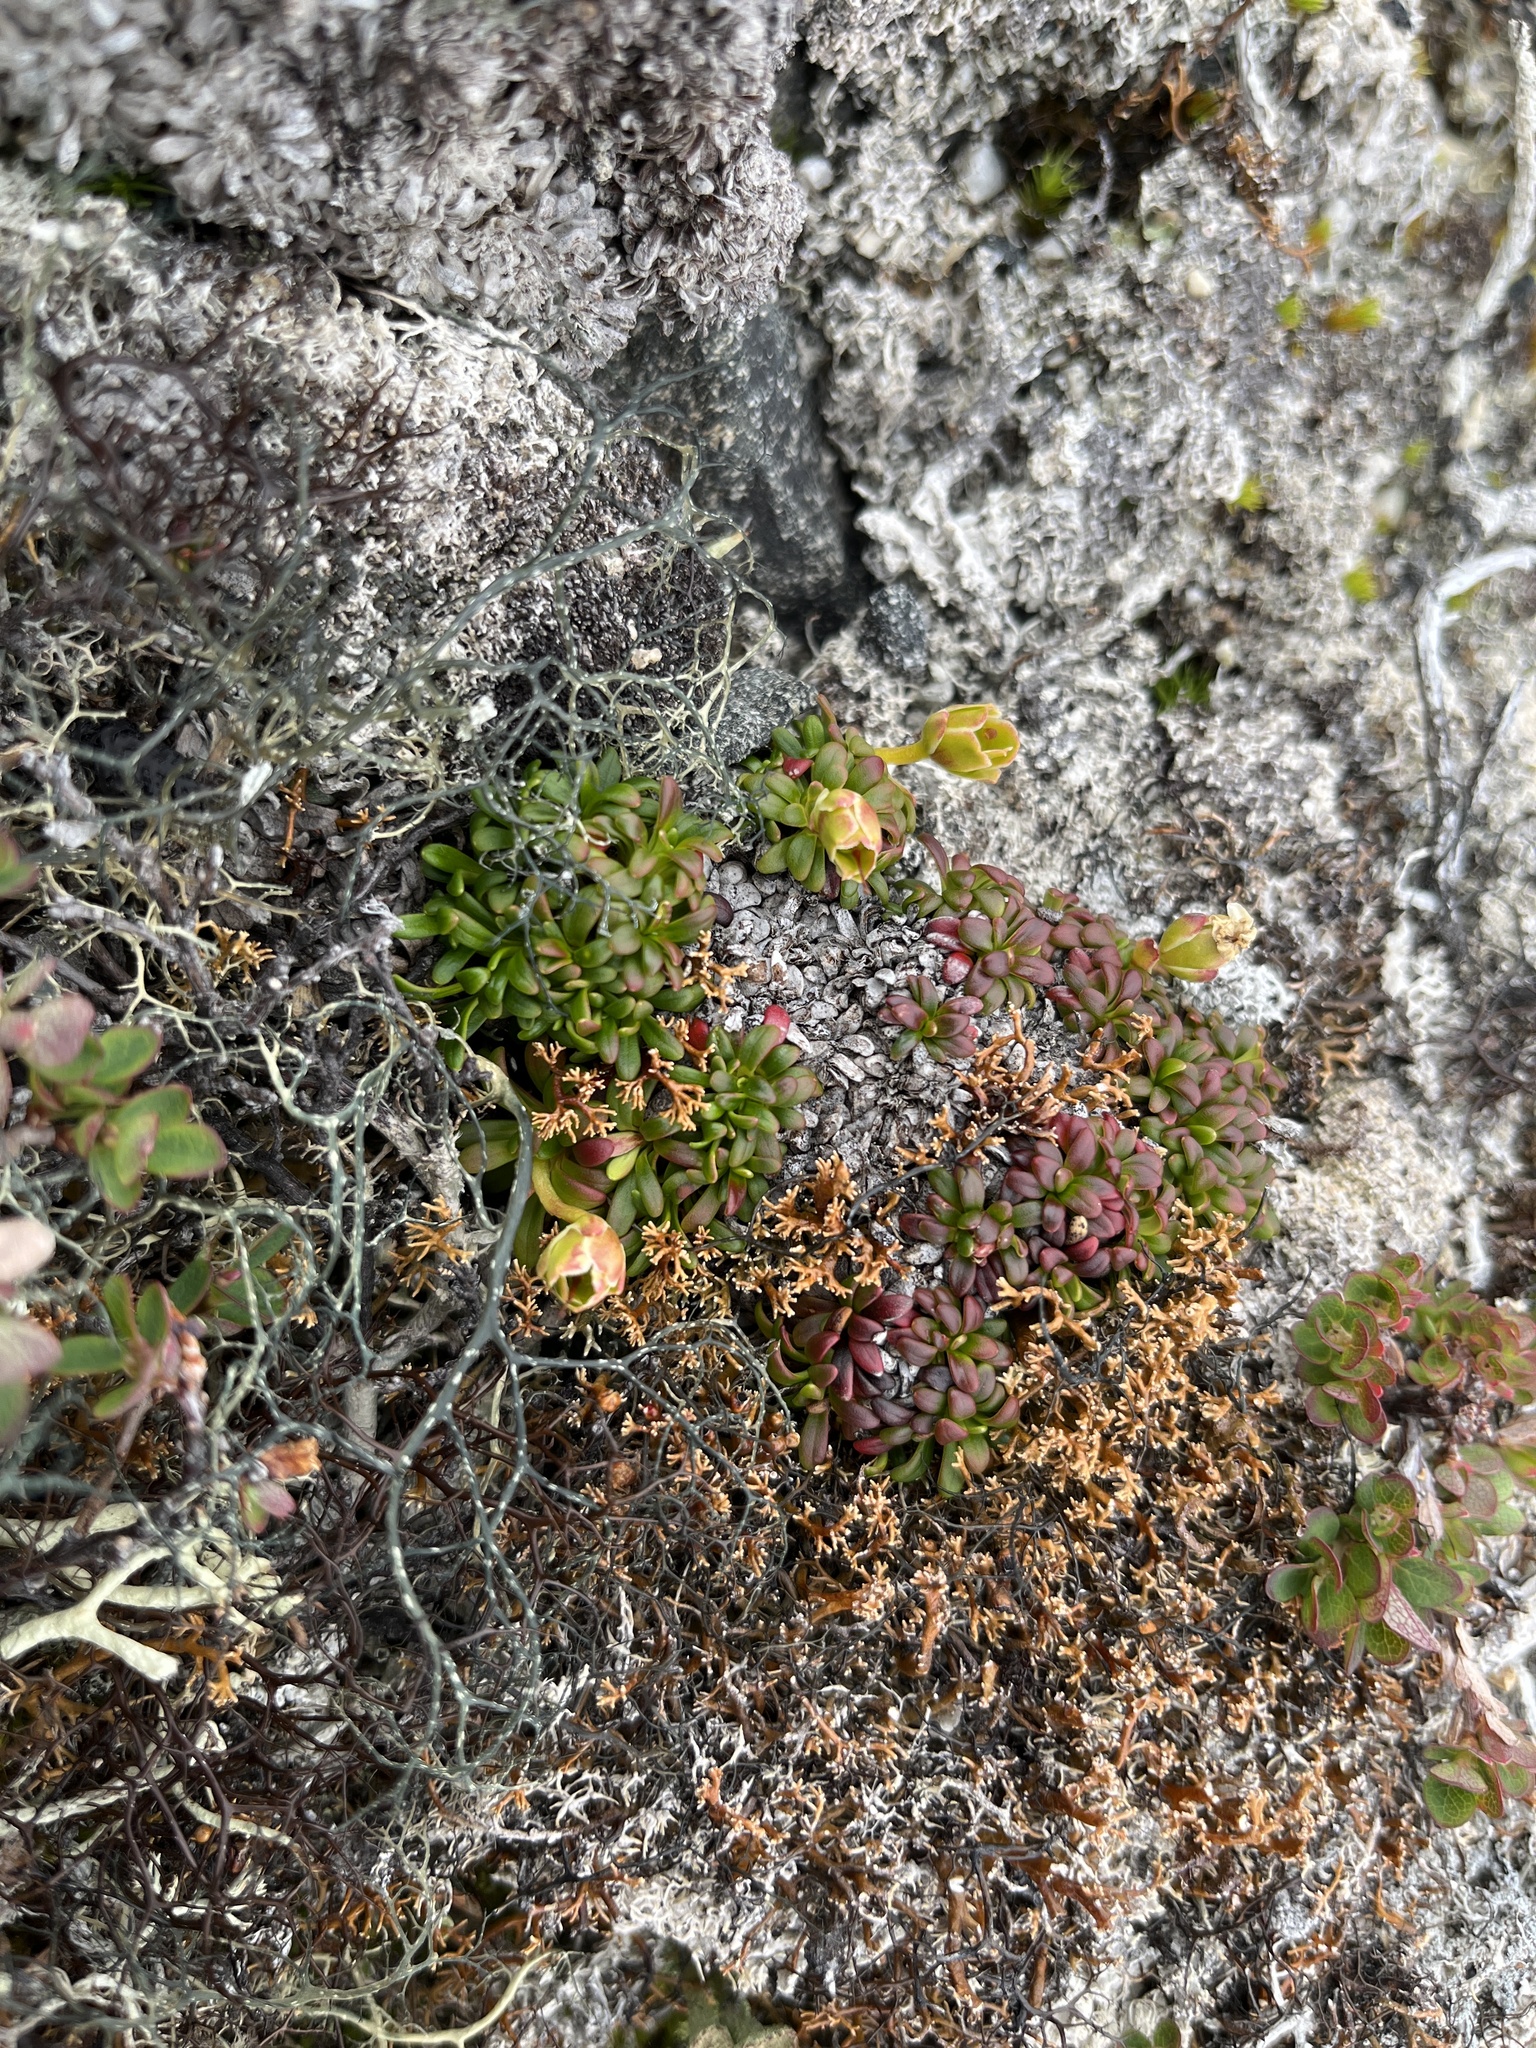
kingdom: Plantae
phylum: Tracheophyta
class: Magnoliopsida
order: Ericales
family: Diapensiaceae
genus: Diapensia
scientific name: Diapensia lapponica
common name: Diapensia
